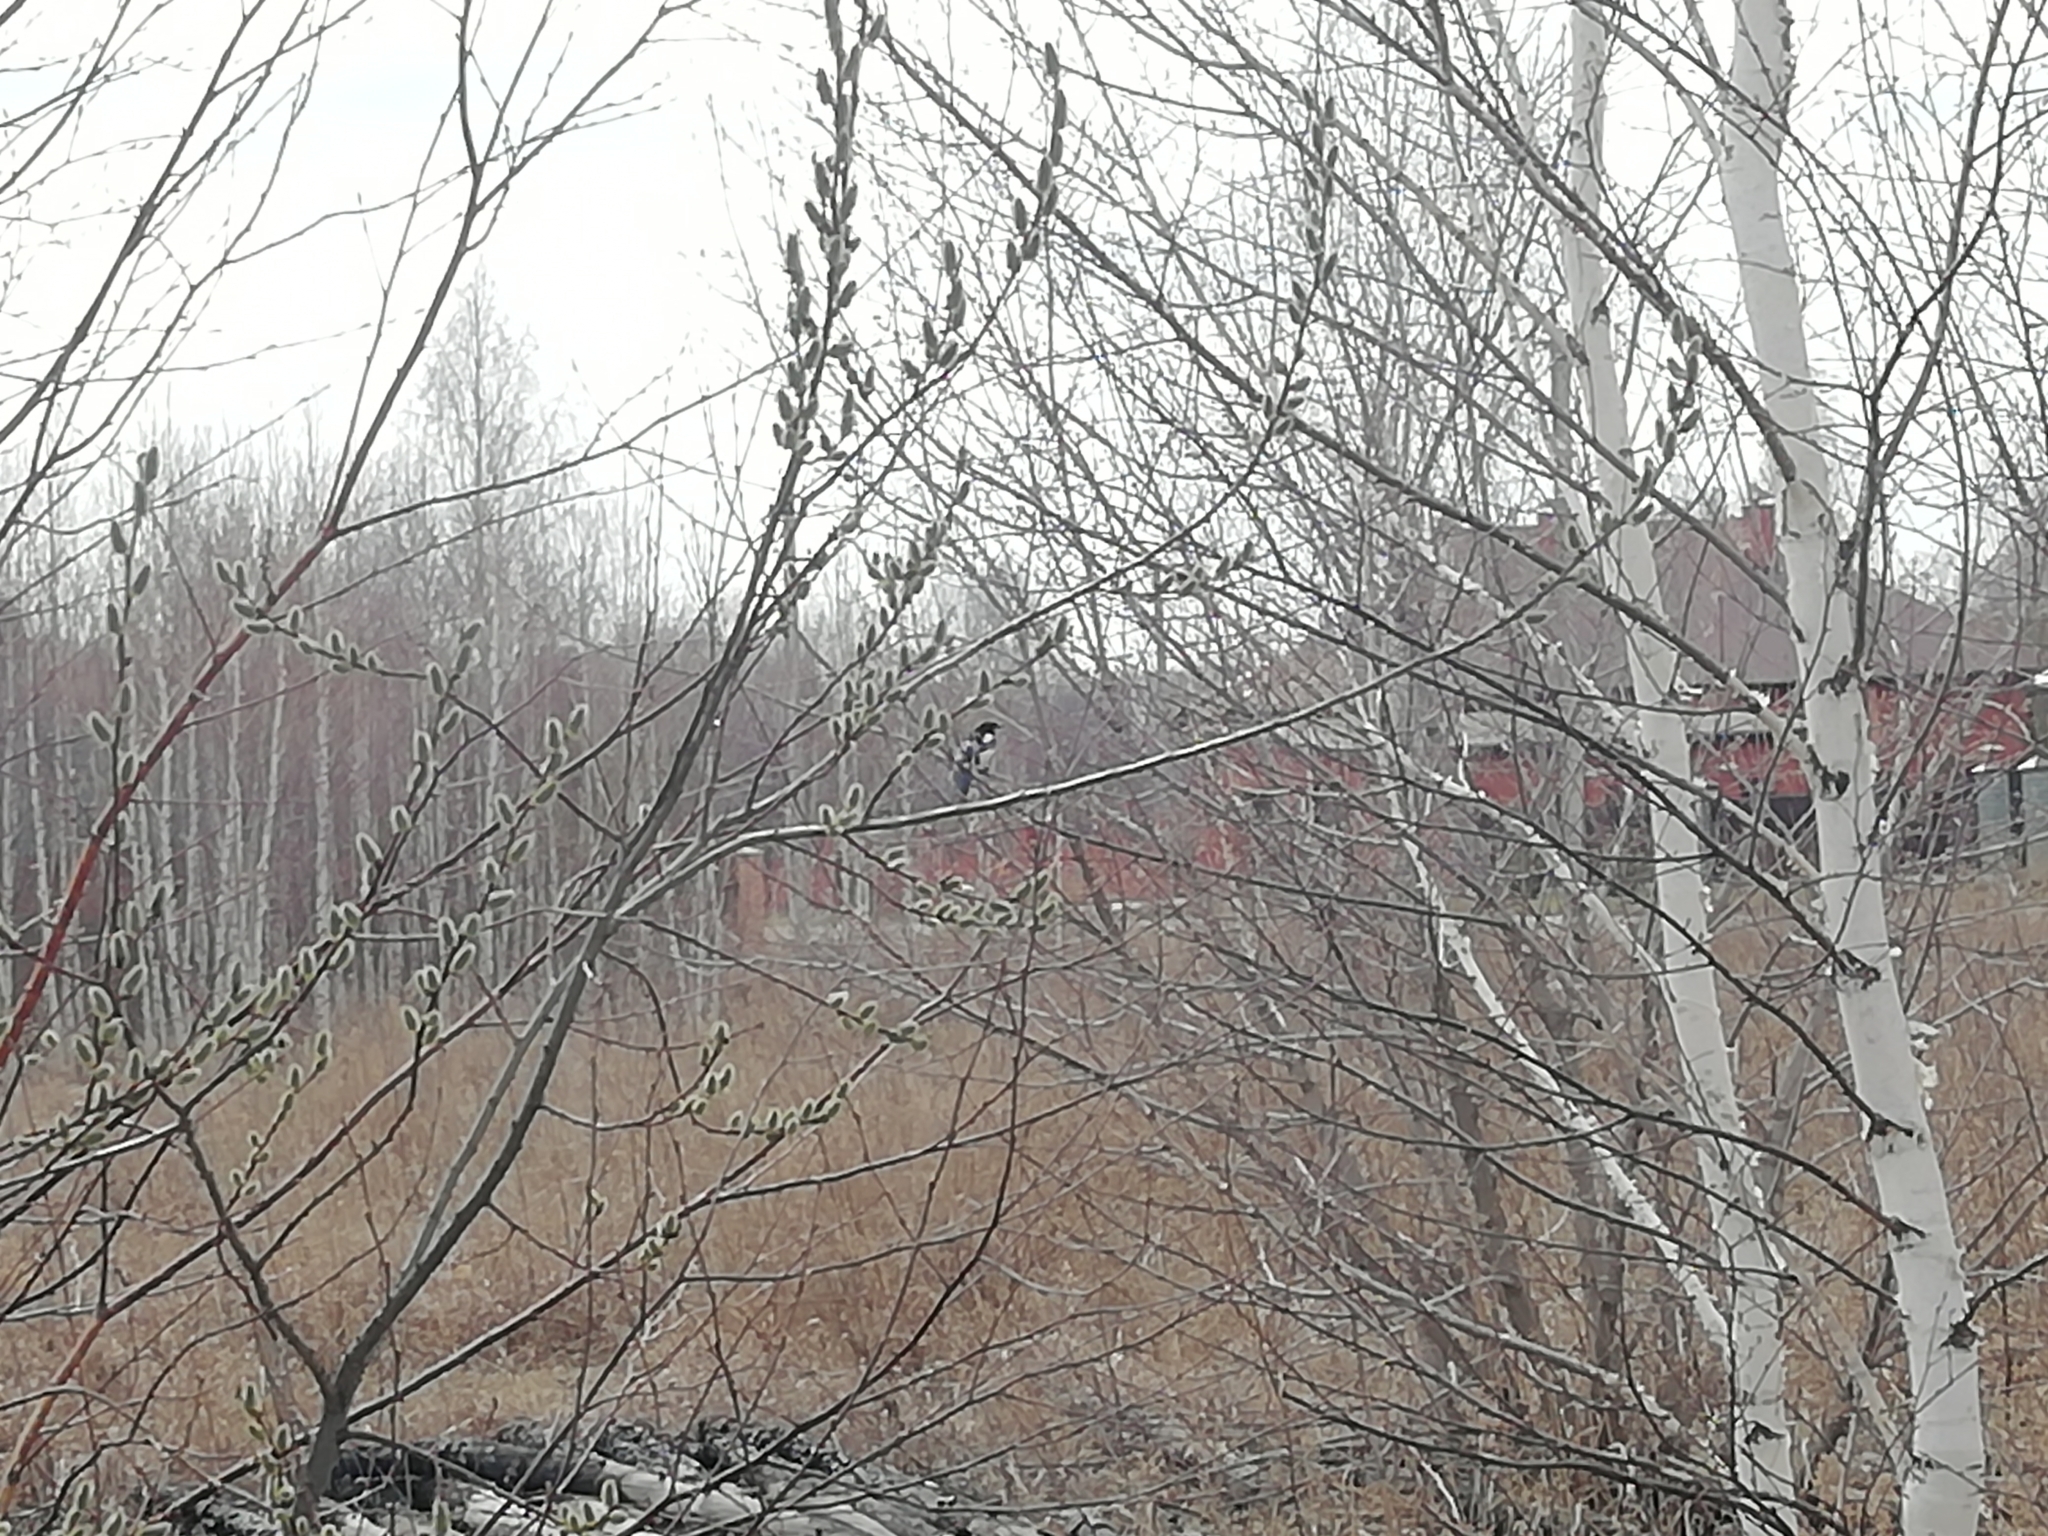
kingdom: Animalia
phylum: Chordata
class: Aves
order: Passeriformes
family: Corvidae
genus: Pica
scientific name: Pica pica
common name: Eurasian magpie
